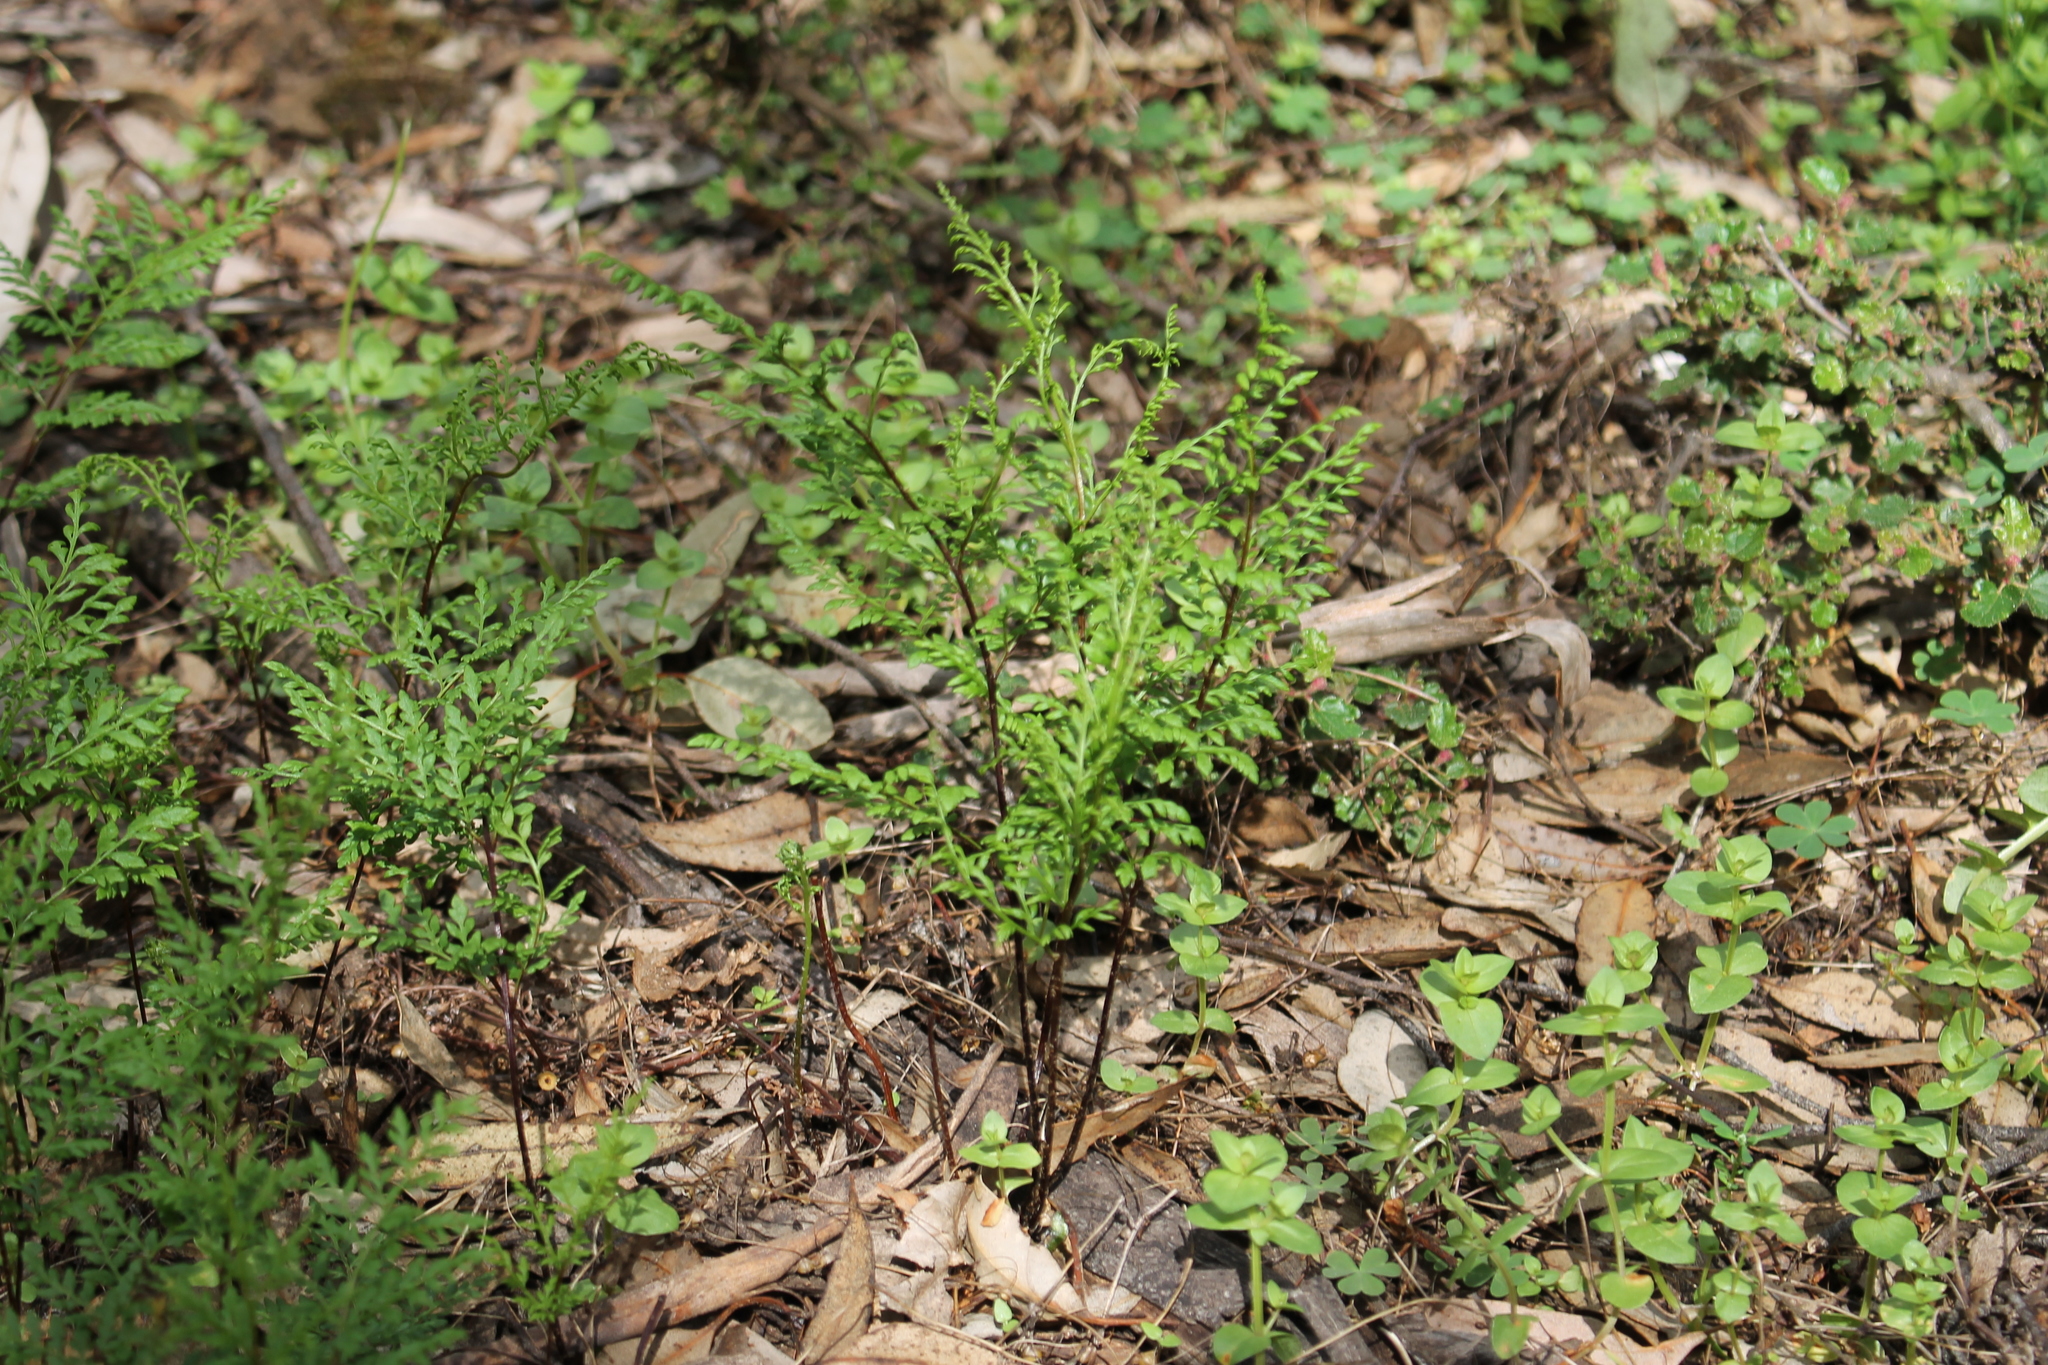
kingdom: Plantae
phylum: Tracheophyta
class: Polypodiopsida
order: Polypodiales
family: Pteridaceae
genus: Cheilanthes
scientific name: Cheilanthes austrotenuifolia
